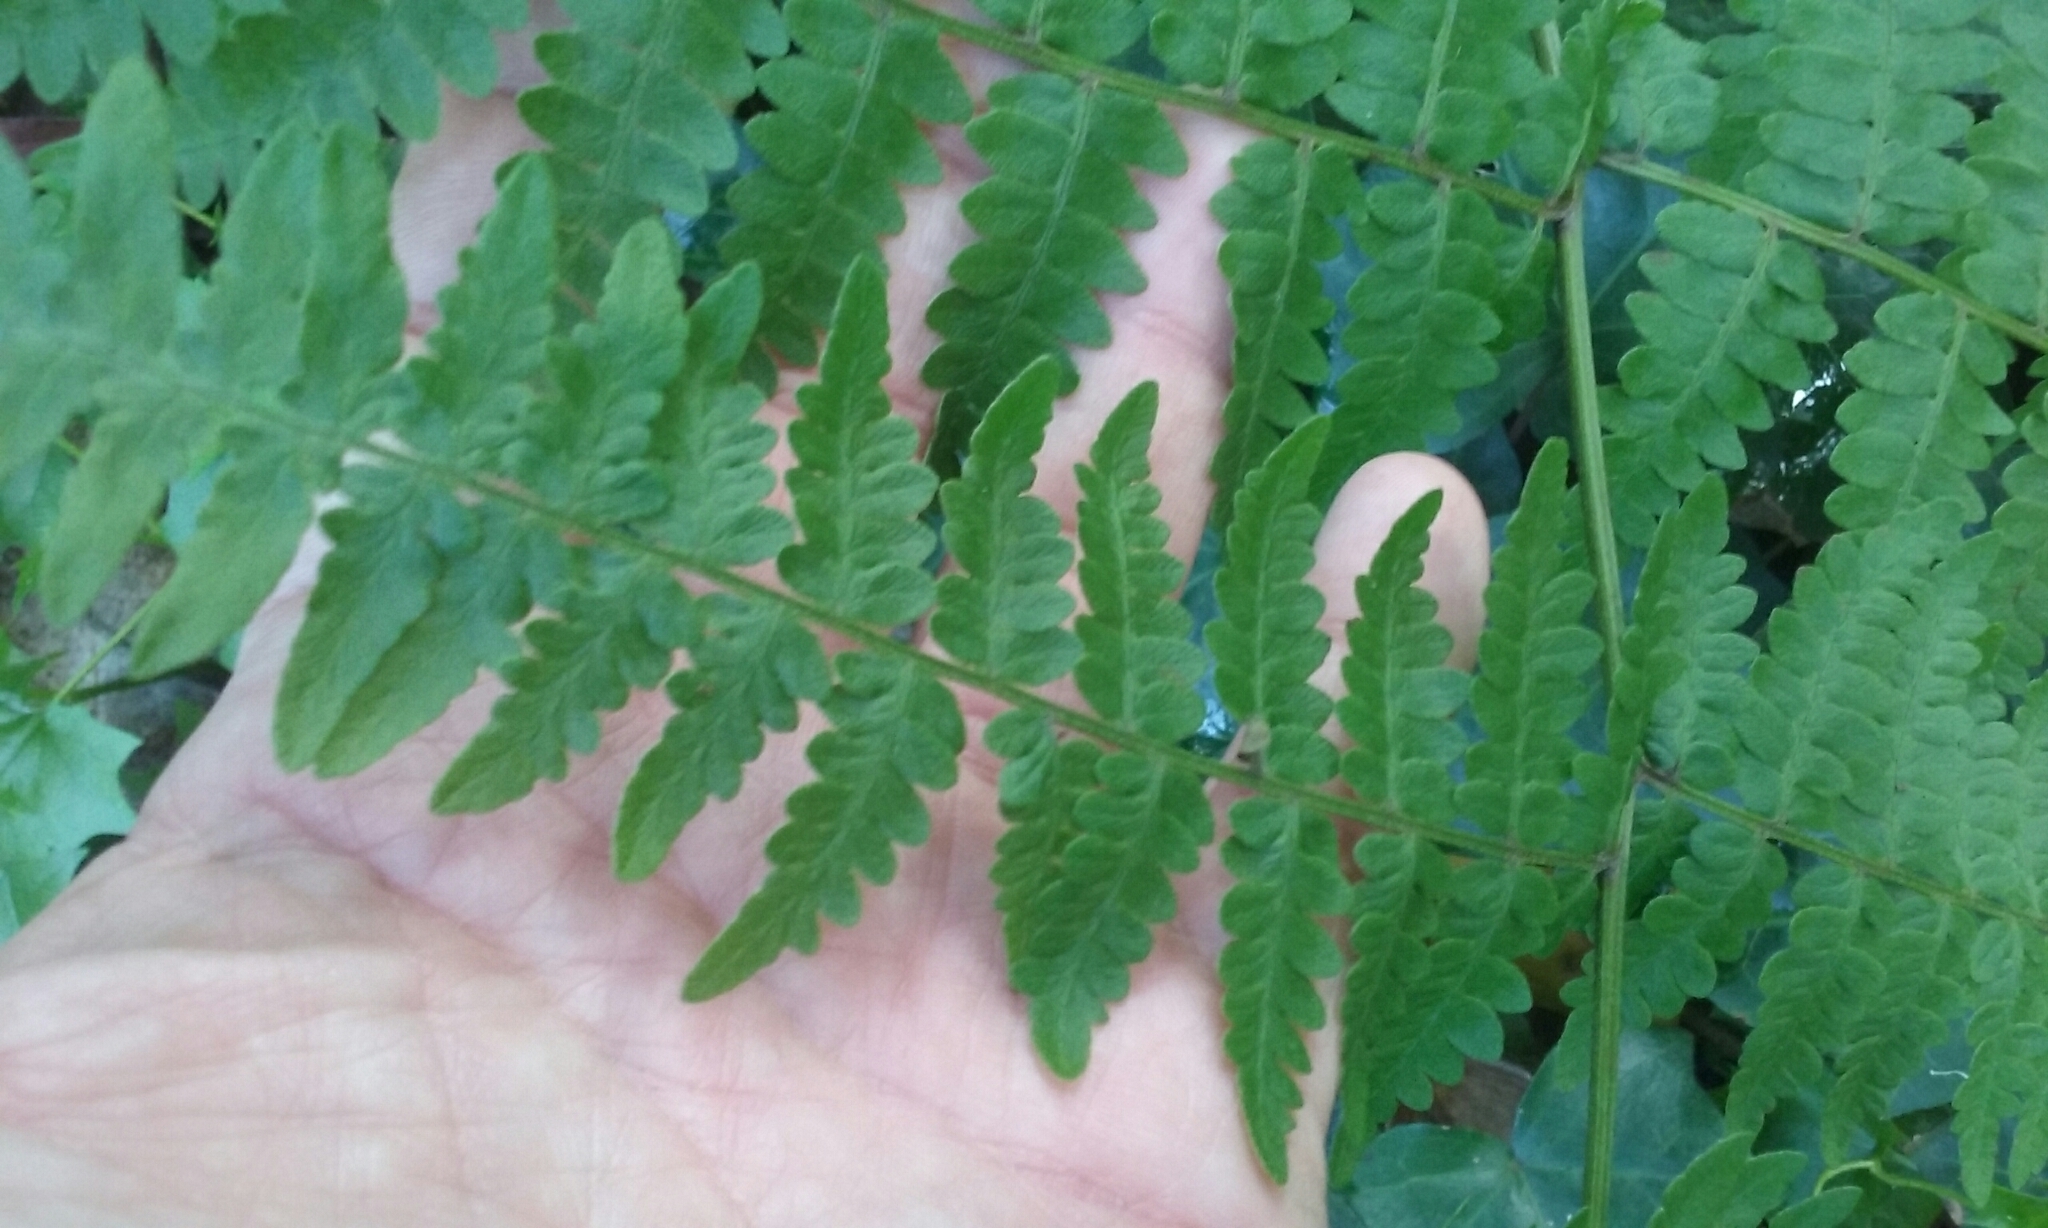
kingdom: Plantae
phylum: Tracheophyta
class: Polypodiopsida
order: Polypodiales
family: Dennstaedtiaceae
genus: Pteridium
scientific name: Pteridium aquilinum
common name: Bracken
